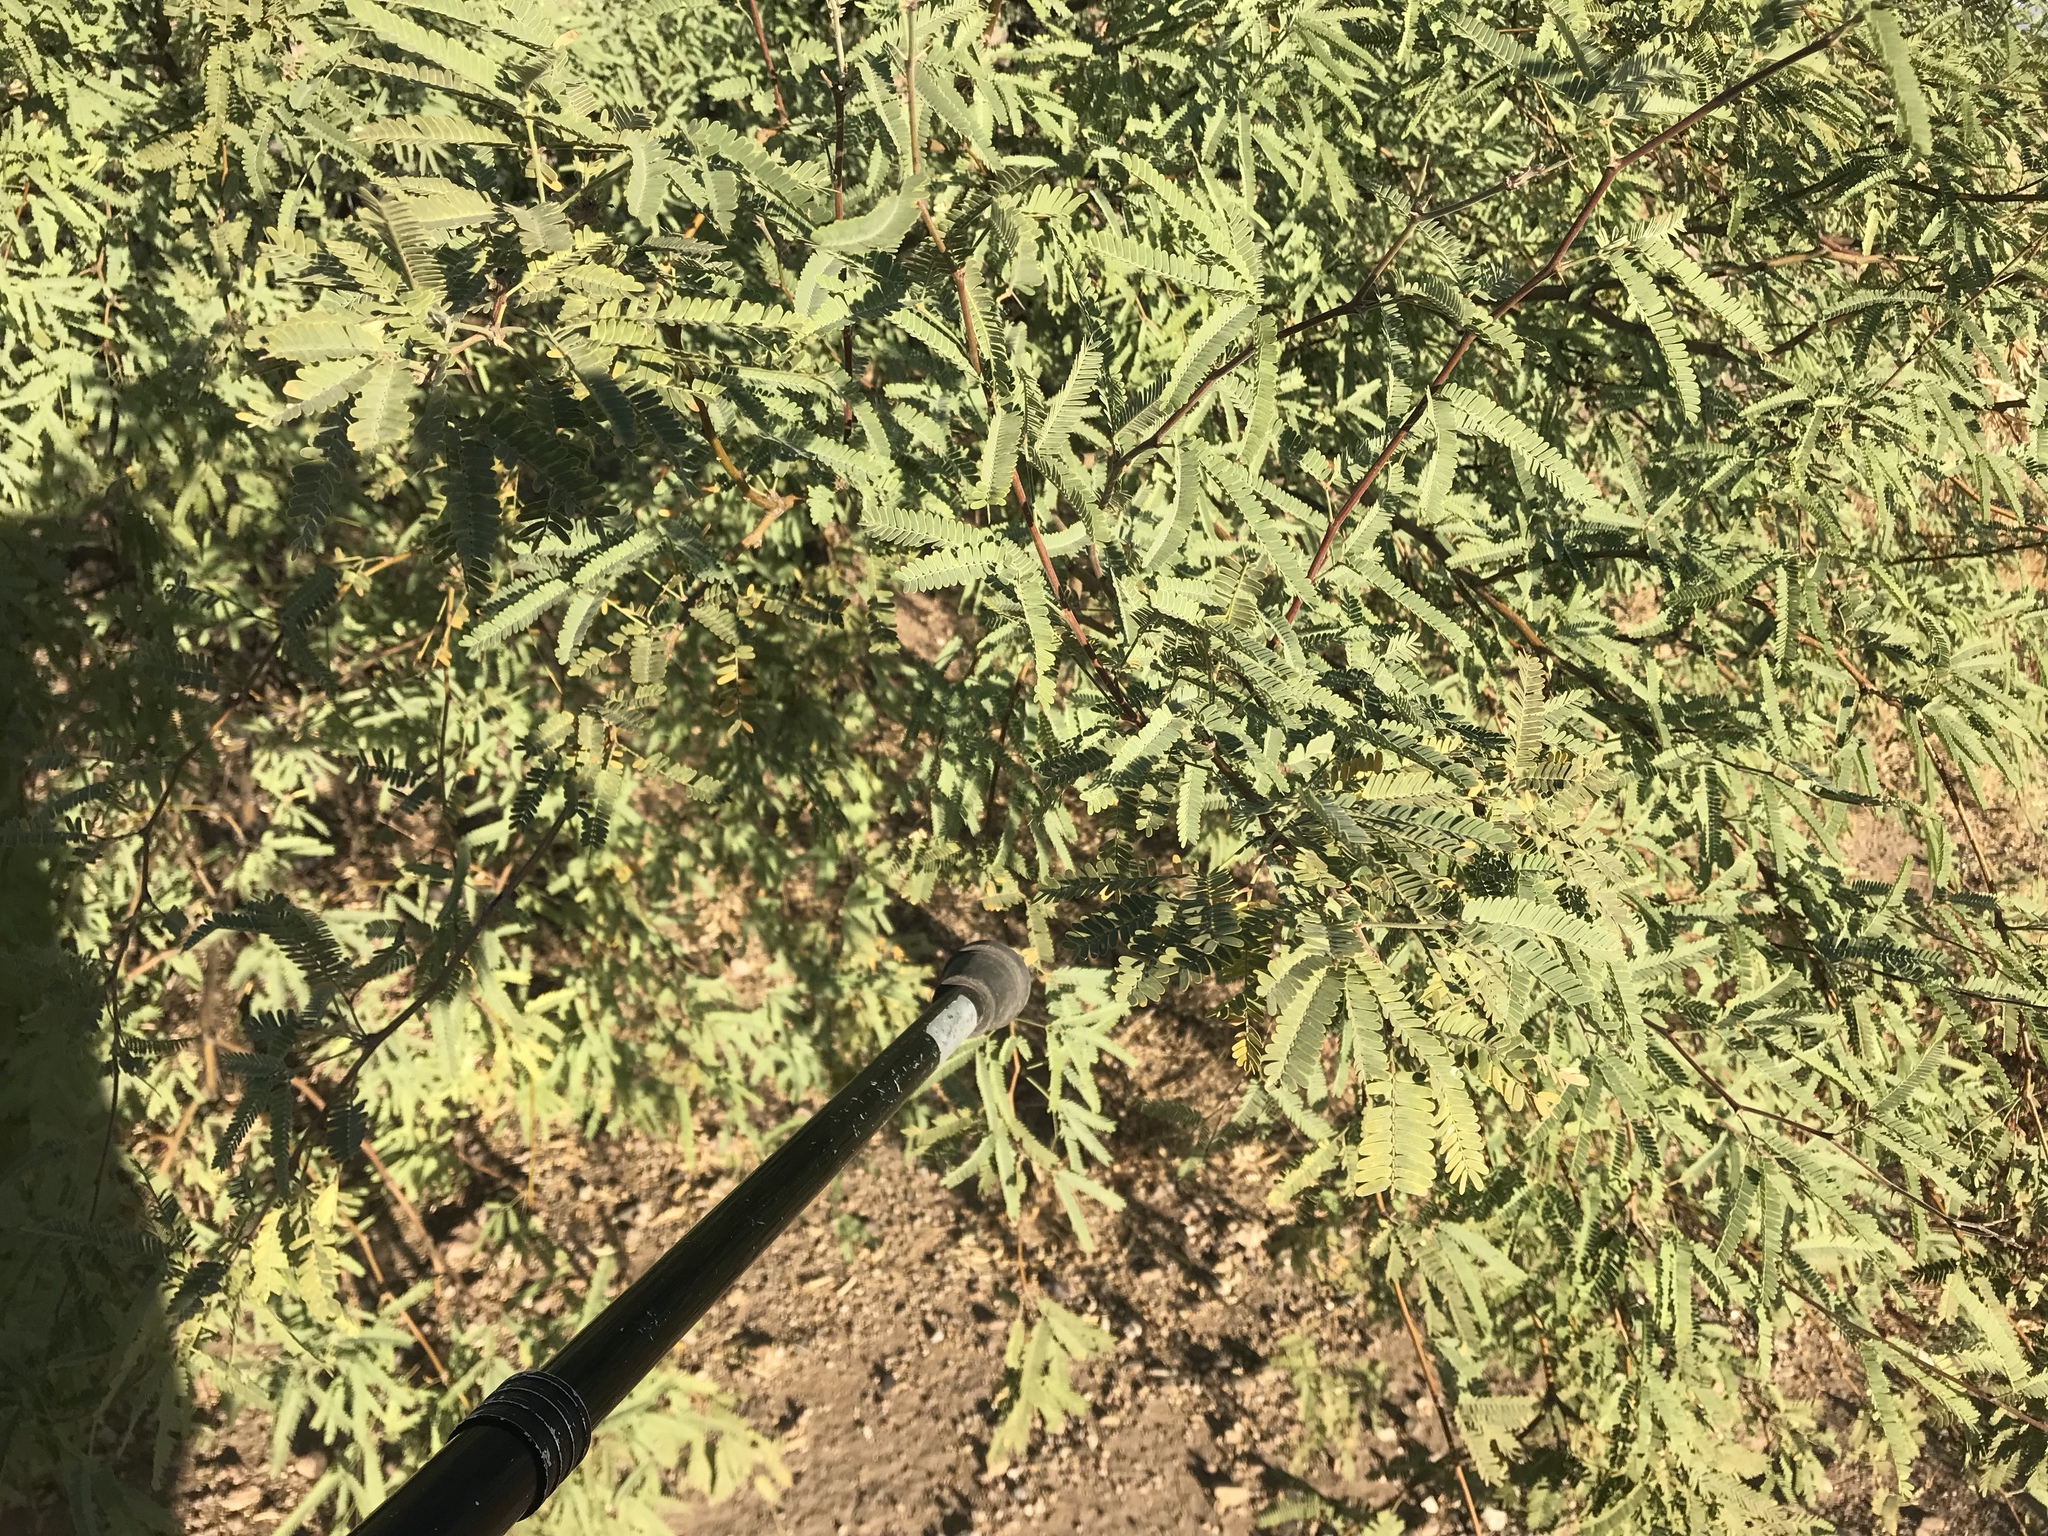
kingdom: Plantae
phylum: Tracheophyta
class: Magnoliopsida
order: Fabales
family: Fabaceae
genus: Prosopis
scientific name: Prosopis velutina
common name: Velvet mesquite
